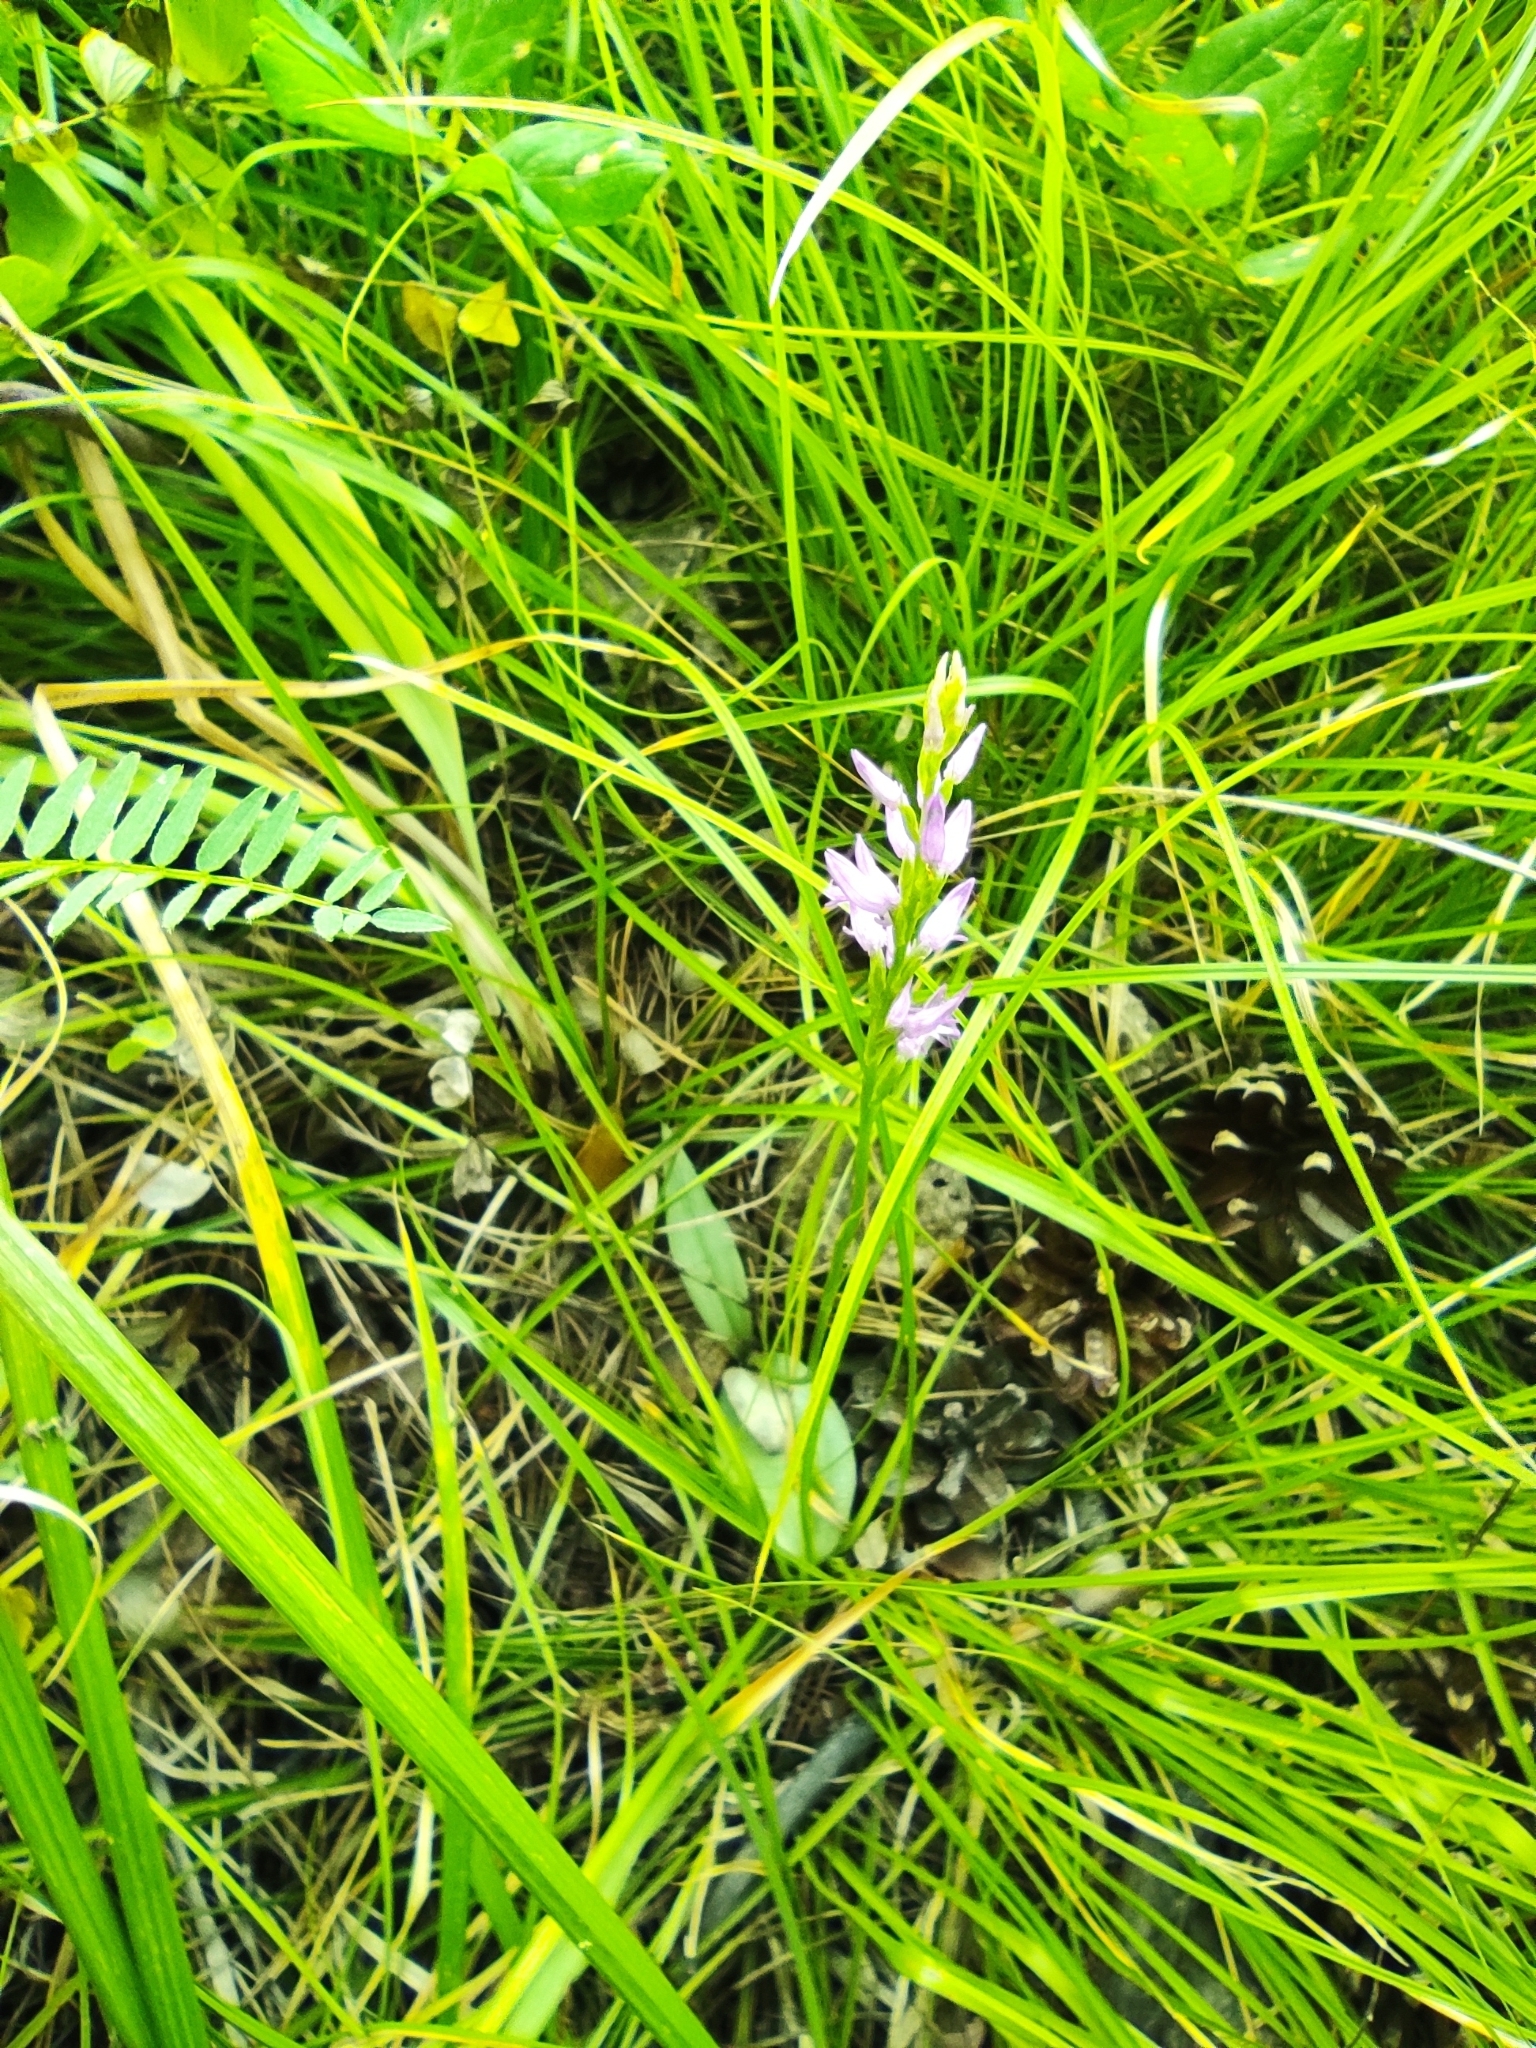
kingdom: Plantae
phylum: Tracheophyta
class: Liliopsida
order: Asparagales
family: Orchidaceae
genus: Hemipilia
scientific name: Hemipilia cucullata
